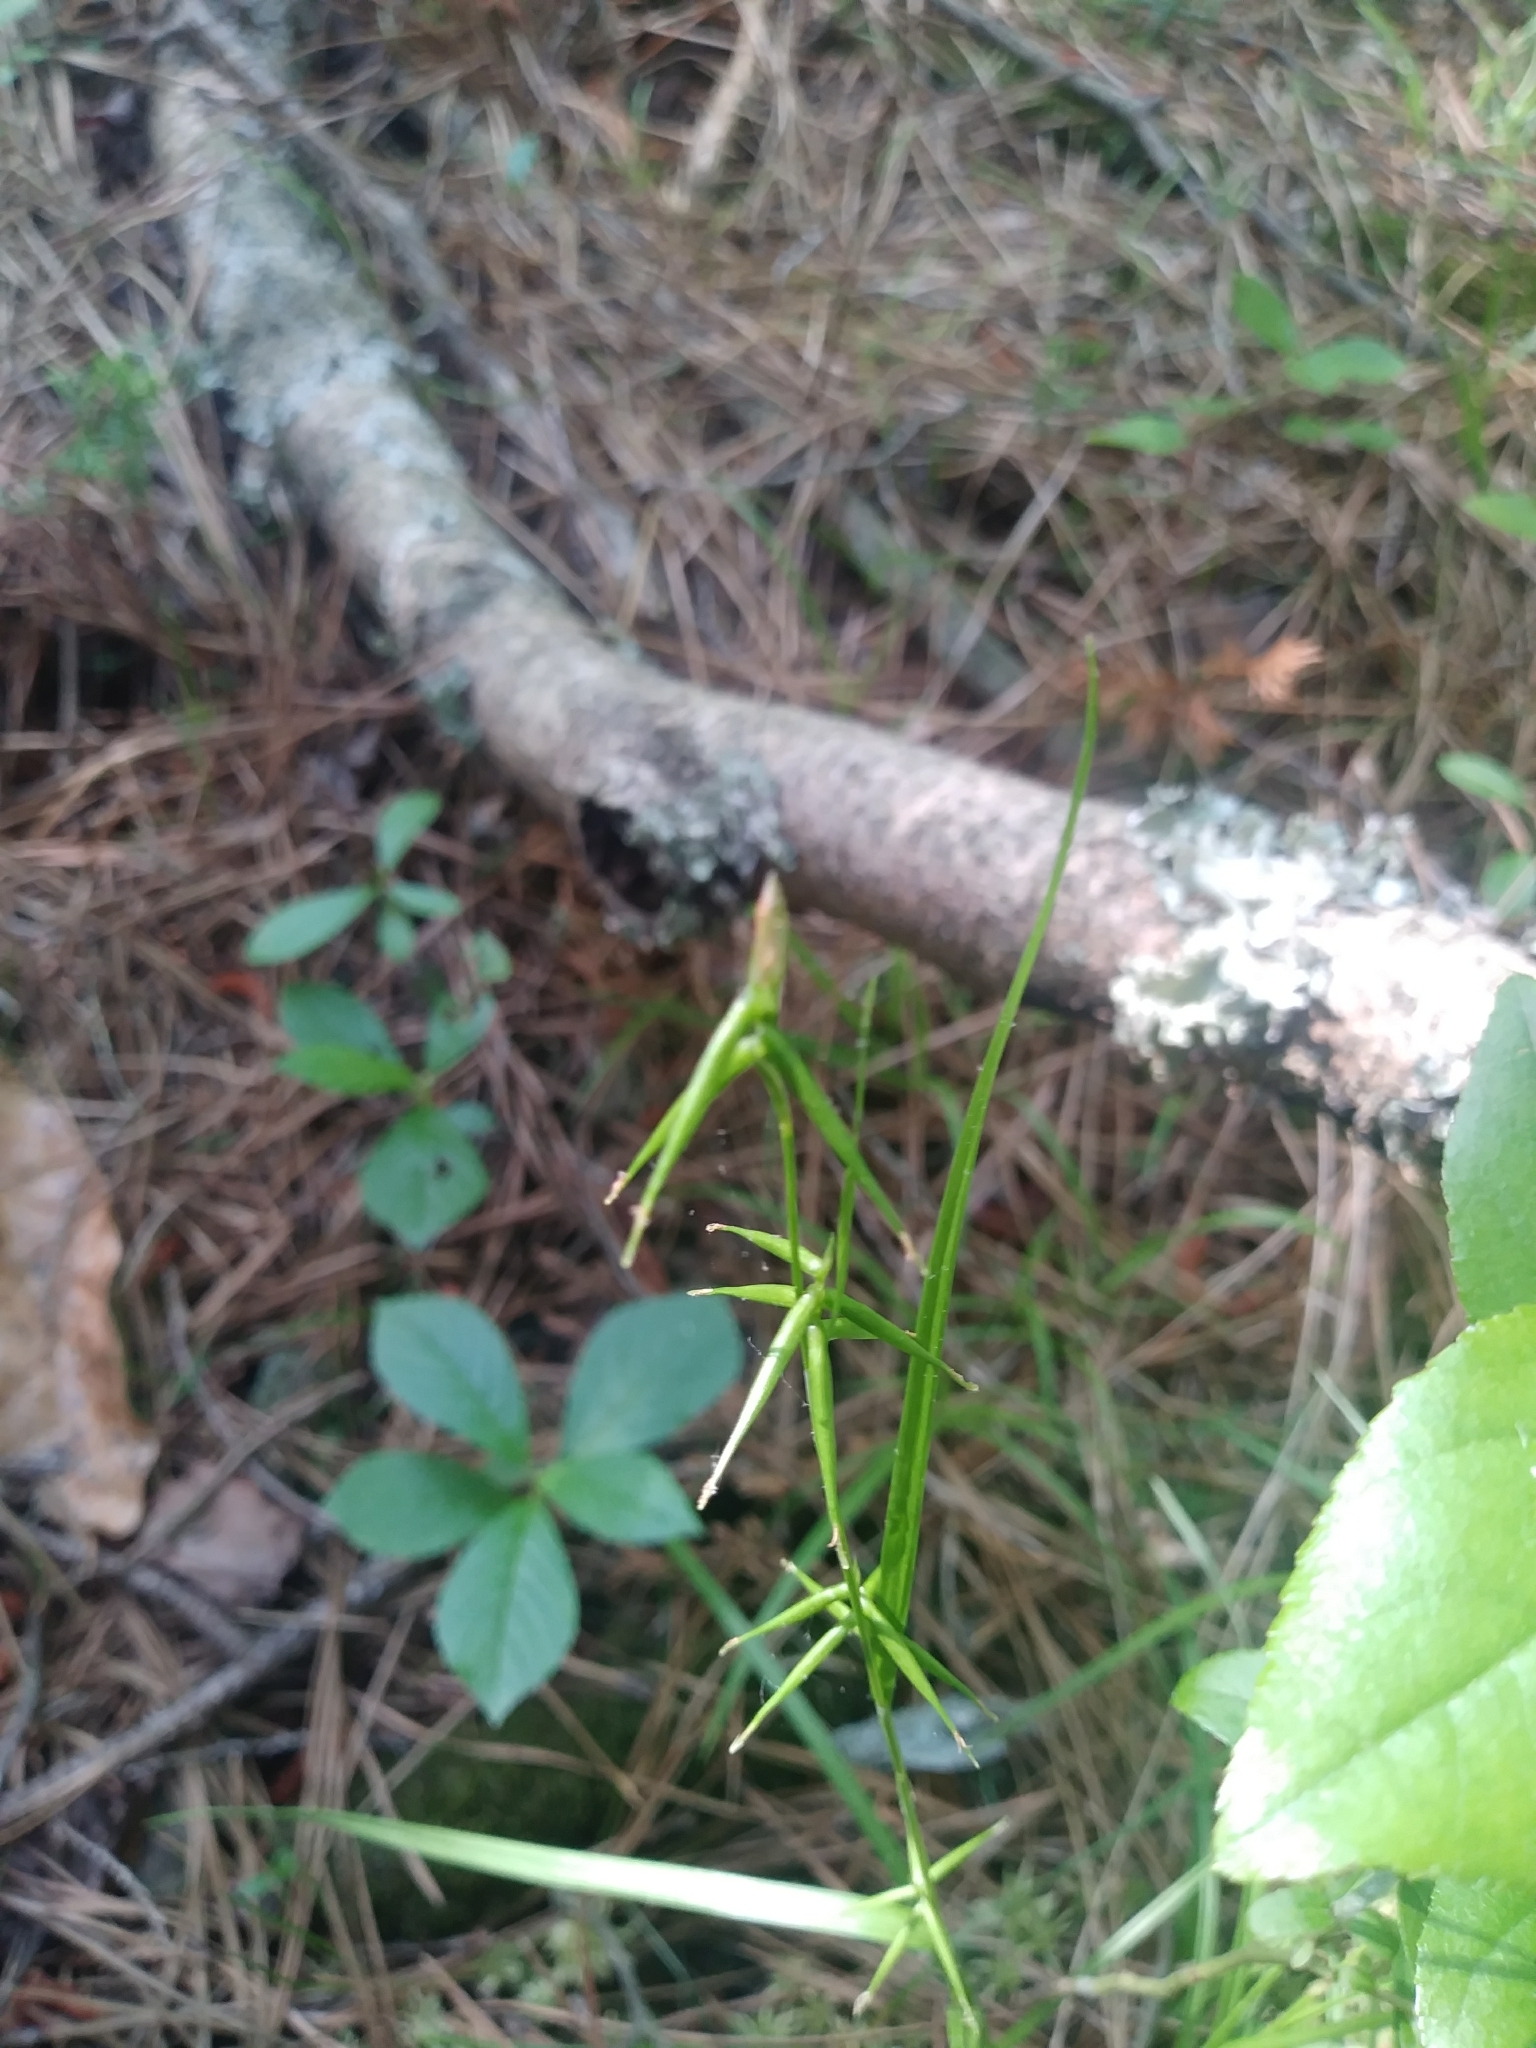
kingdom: Plantae
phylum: Tracheophyta
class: Liliopsida
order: Poales
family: Cyperaceae
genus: Carex
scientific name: Carex collinsii
